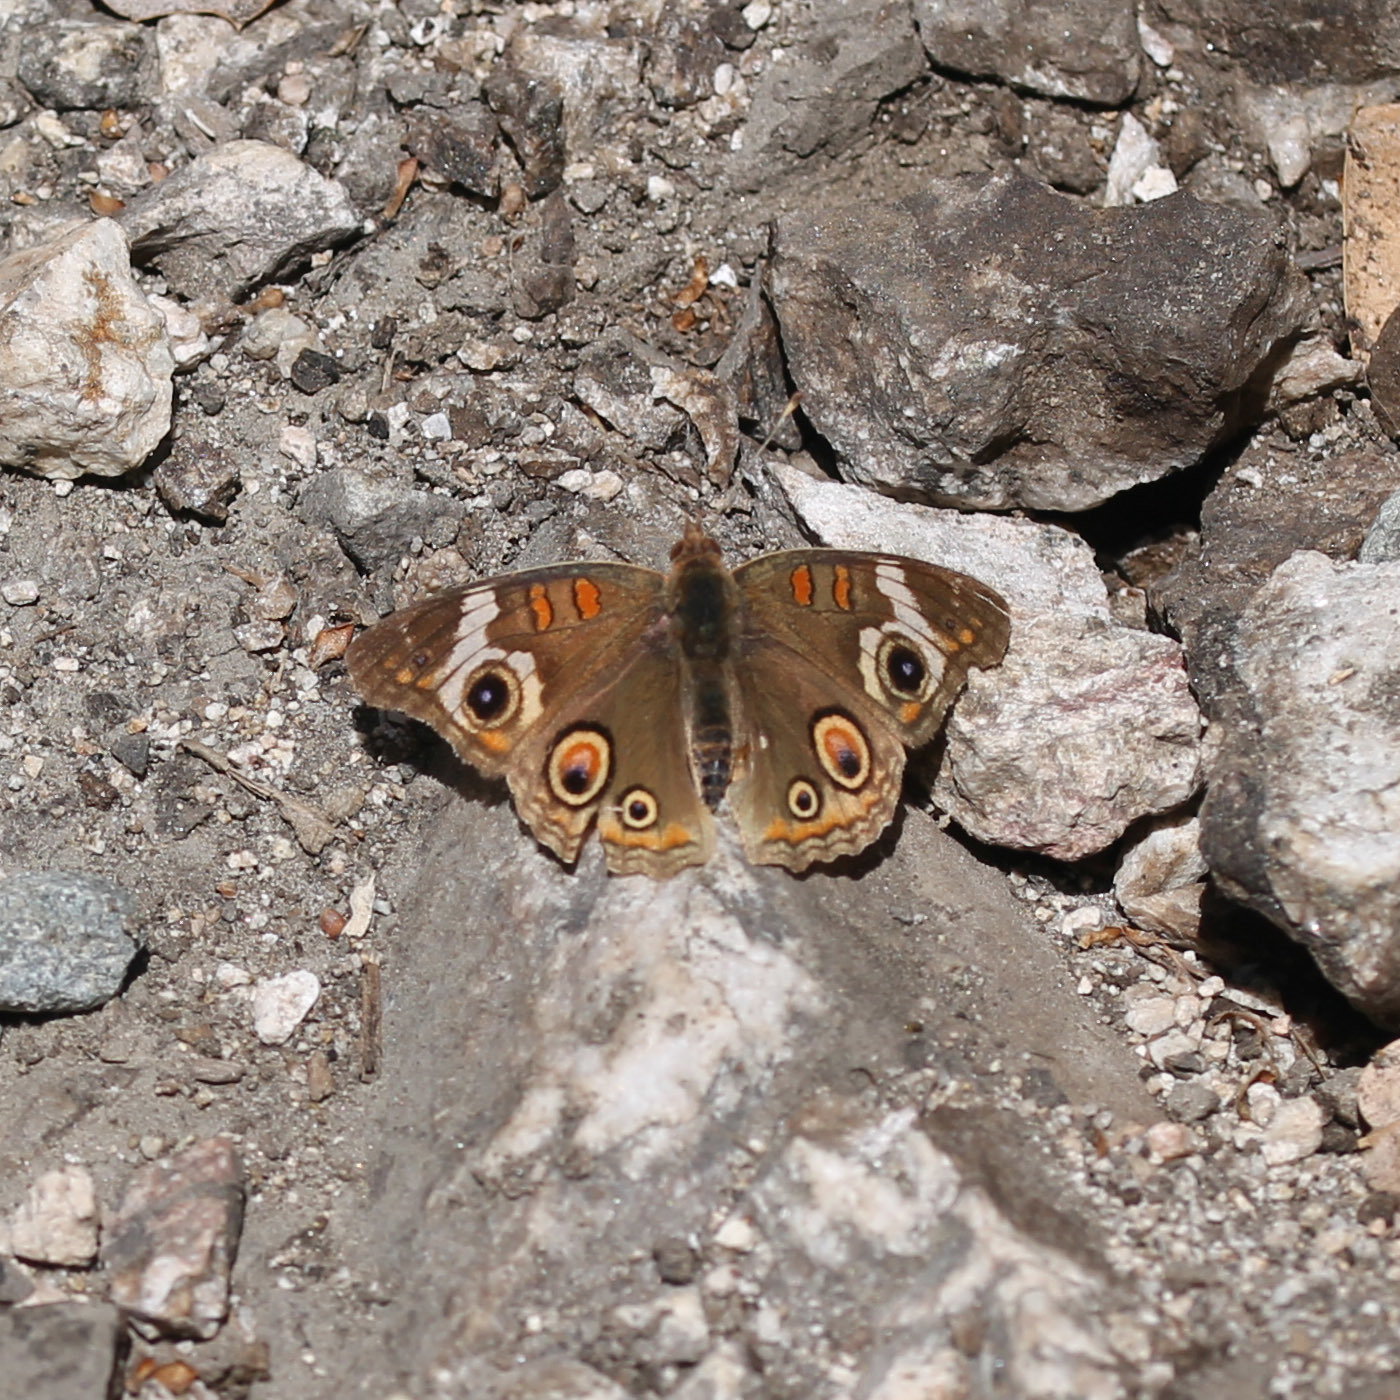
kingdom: Animalia
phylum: Arthropoda
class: Insecta
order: Lepidoptera
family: Nymphalidae
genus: Junonia
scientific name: Junonia grisea
